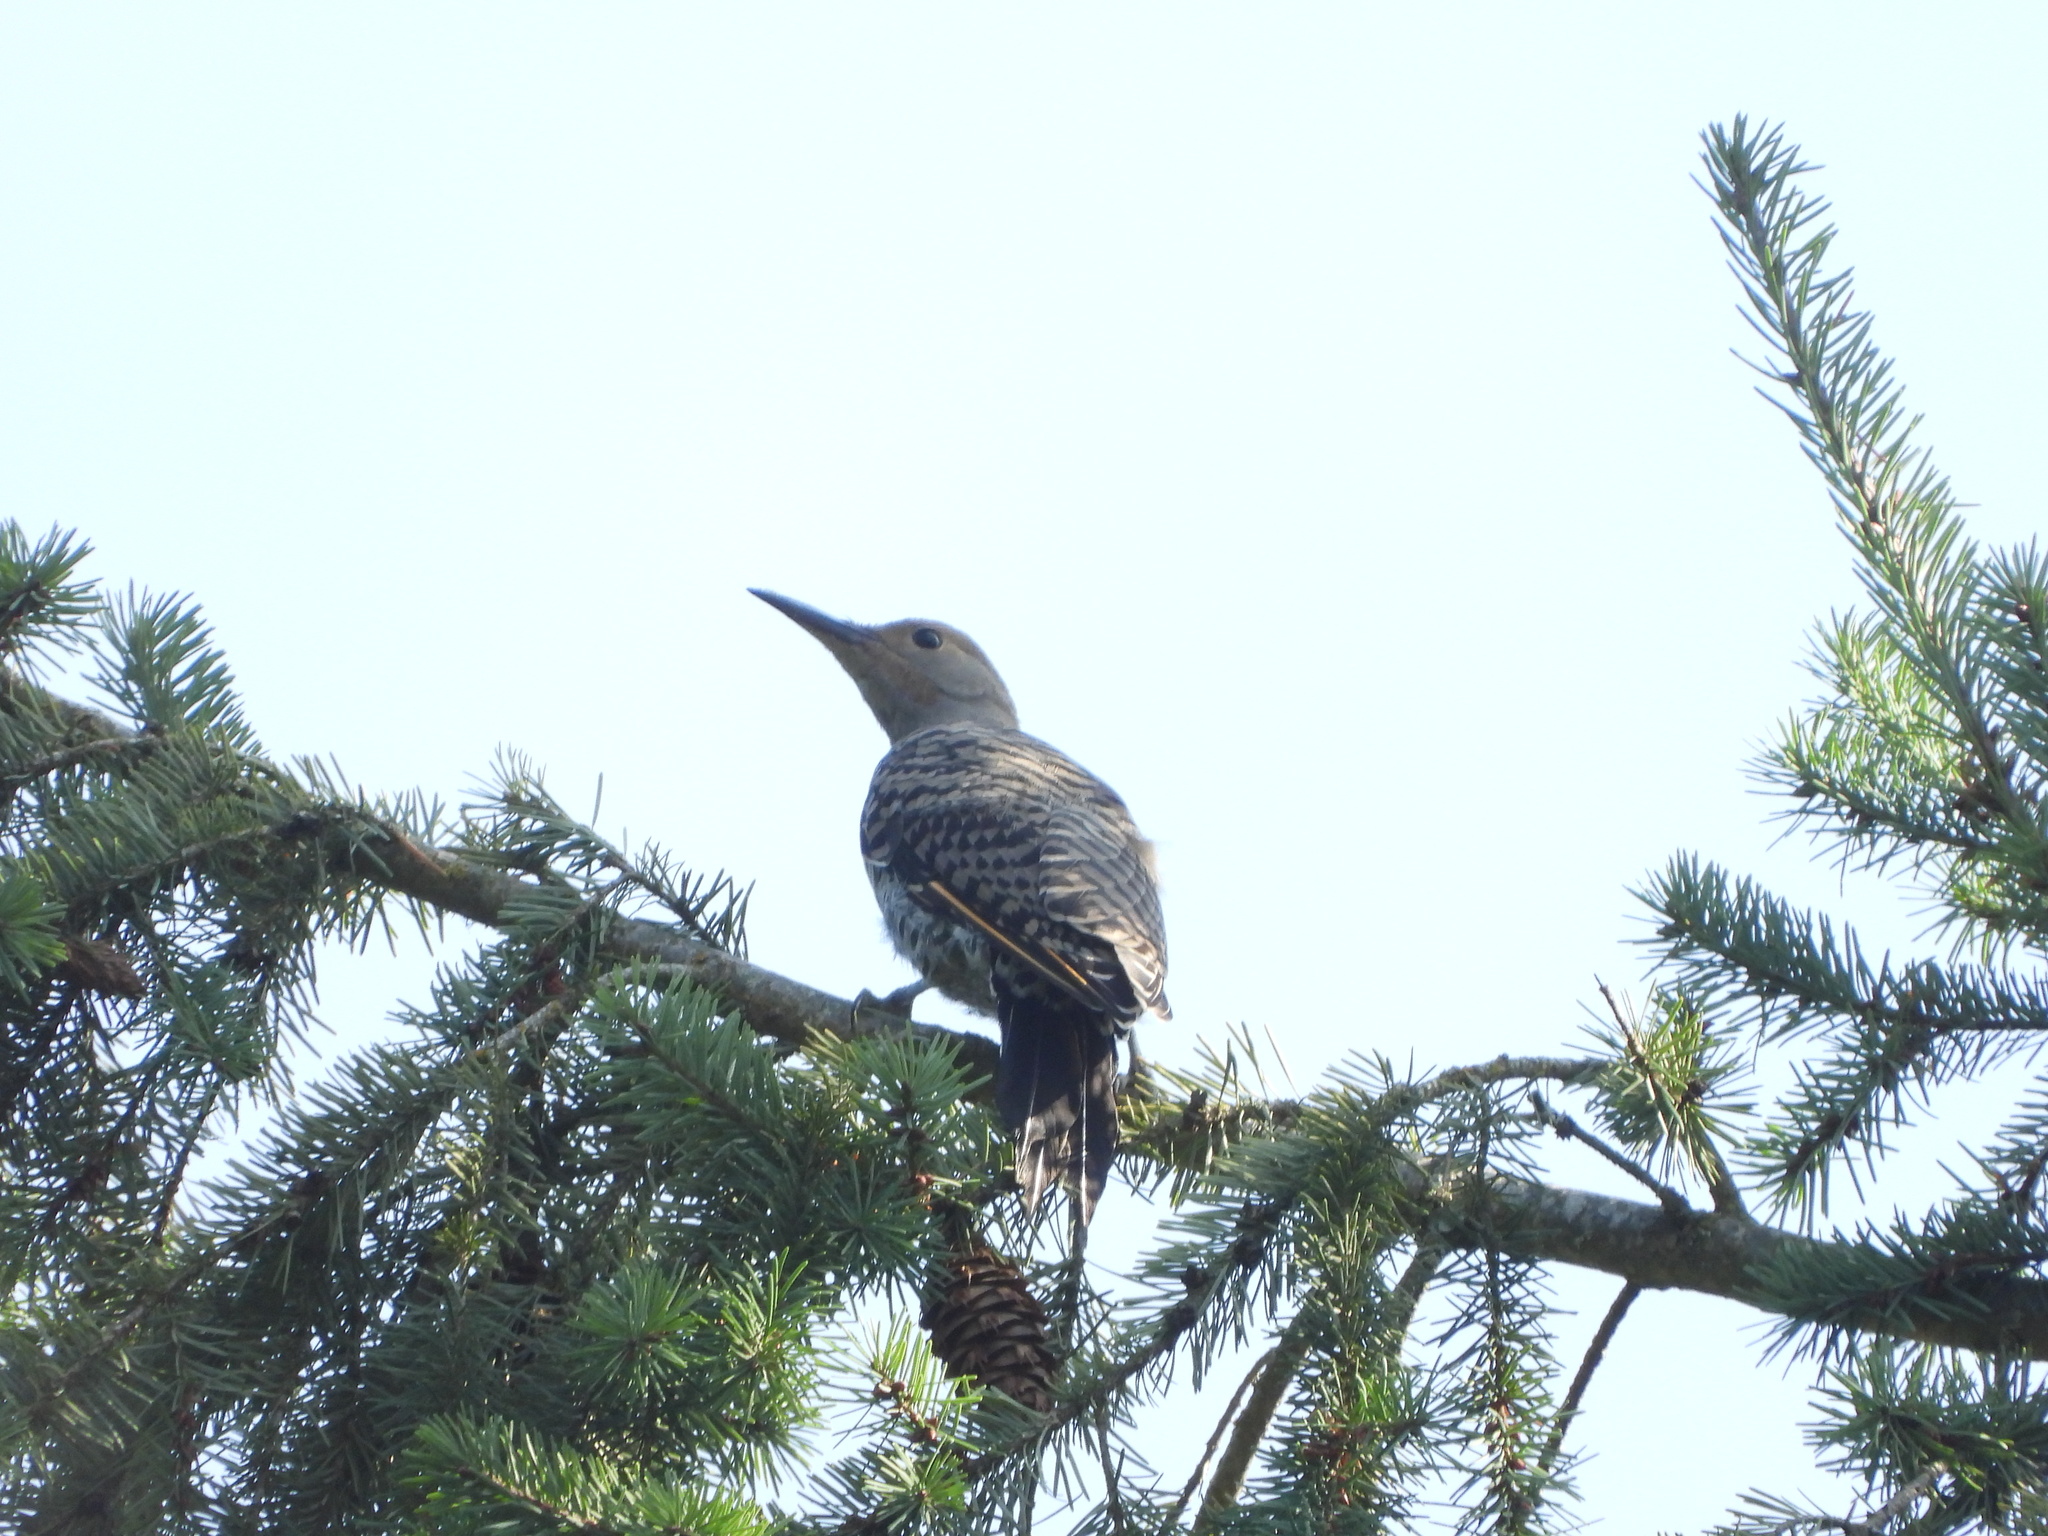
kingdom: Animalia
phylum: Chordata
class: Aves
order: Piciformes
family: Picidae
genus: Colaptes
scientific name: Colaptes
